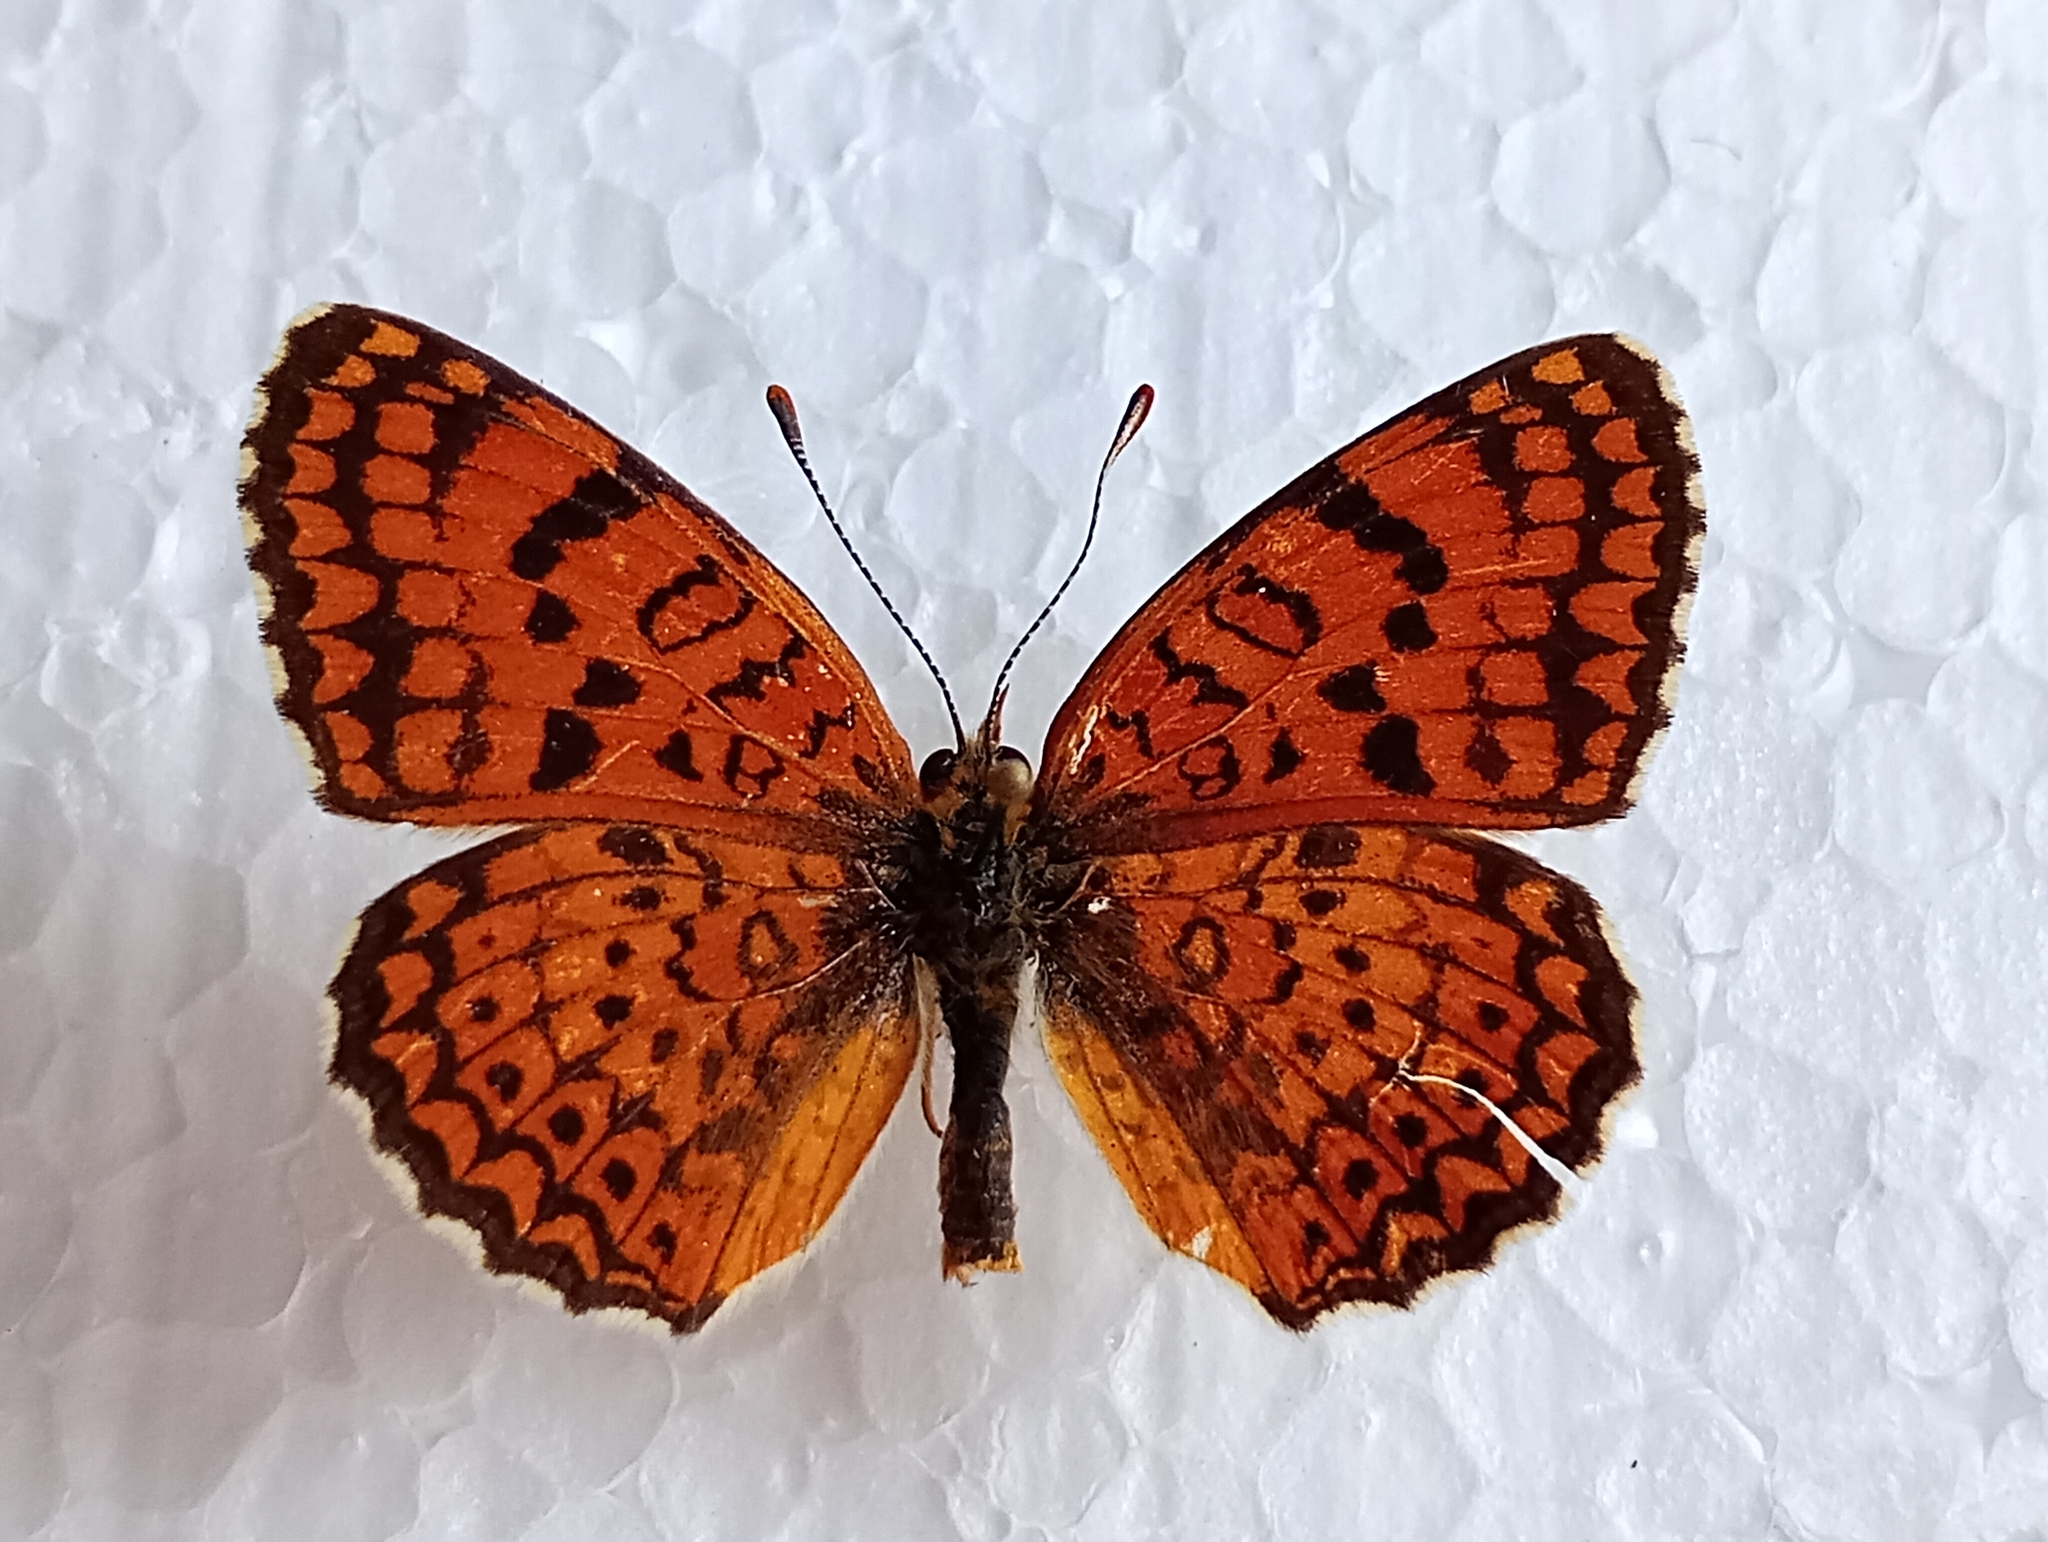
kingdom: Animalia
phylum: Arthropoda
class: Insecta
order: Lepidoptera
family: Nymphalidae
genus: Melitaea
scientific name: Melitaea arduinna
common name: Freyer's fritillary
